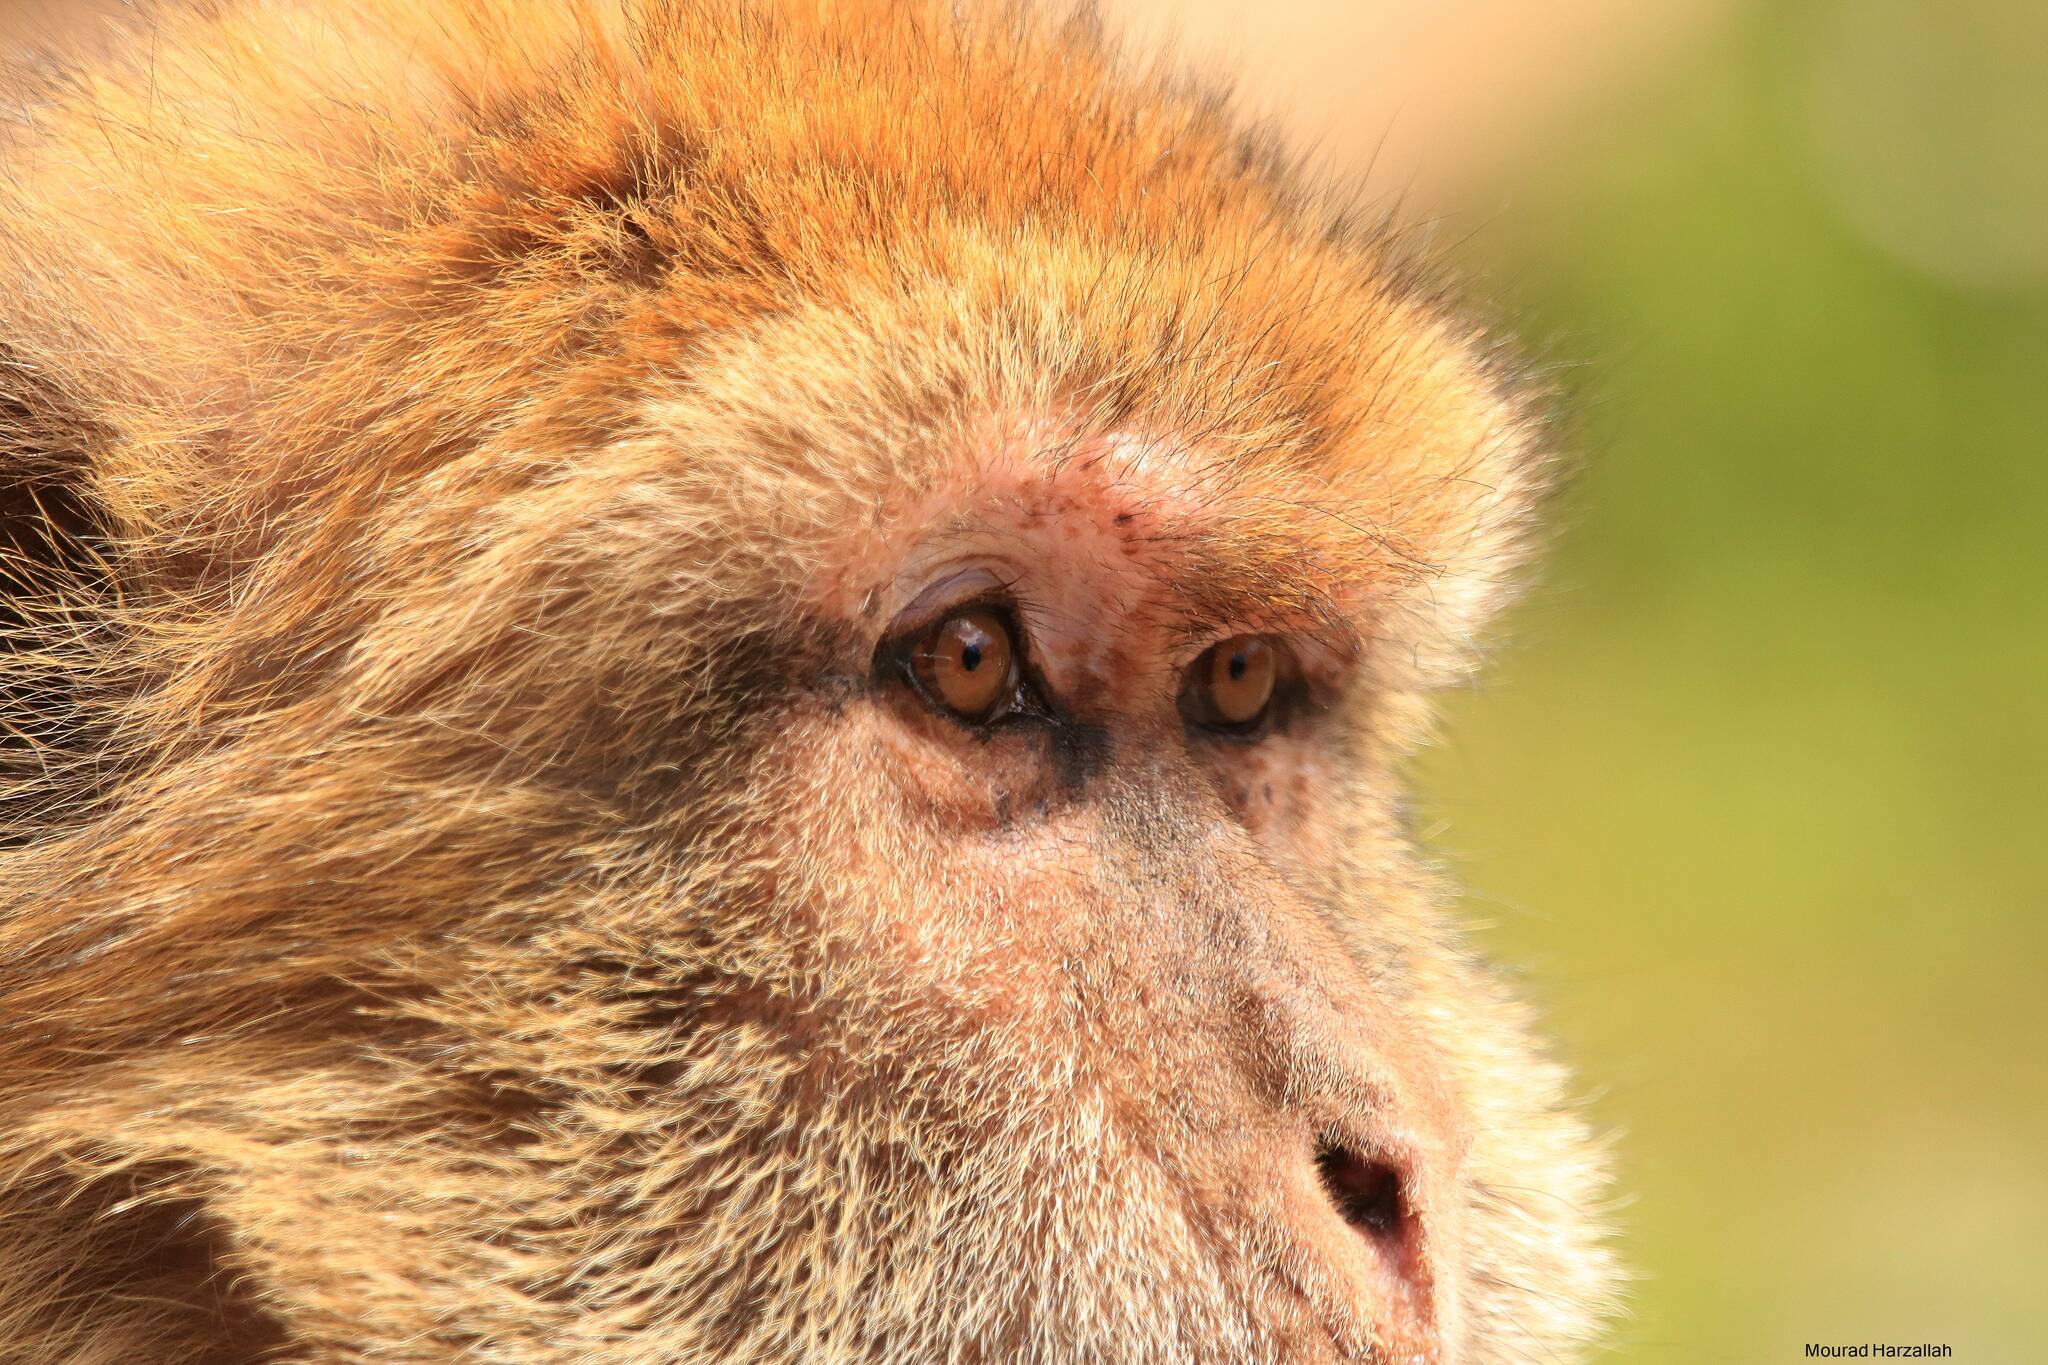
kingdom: Animalia
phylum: Chordata
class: Mammalia
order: Primates
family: Cercopithecidae
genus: Macaca
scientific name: Macaca sylvanus
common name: Barbary macaque
